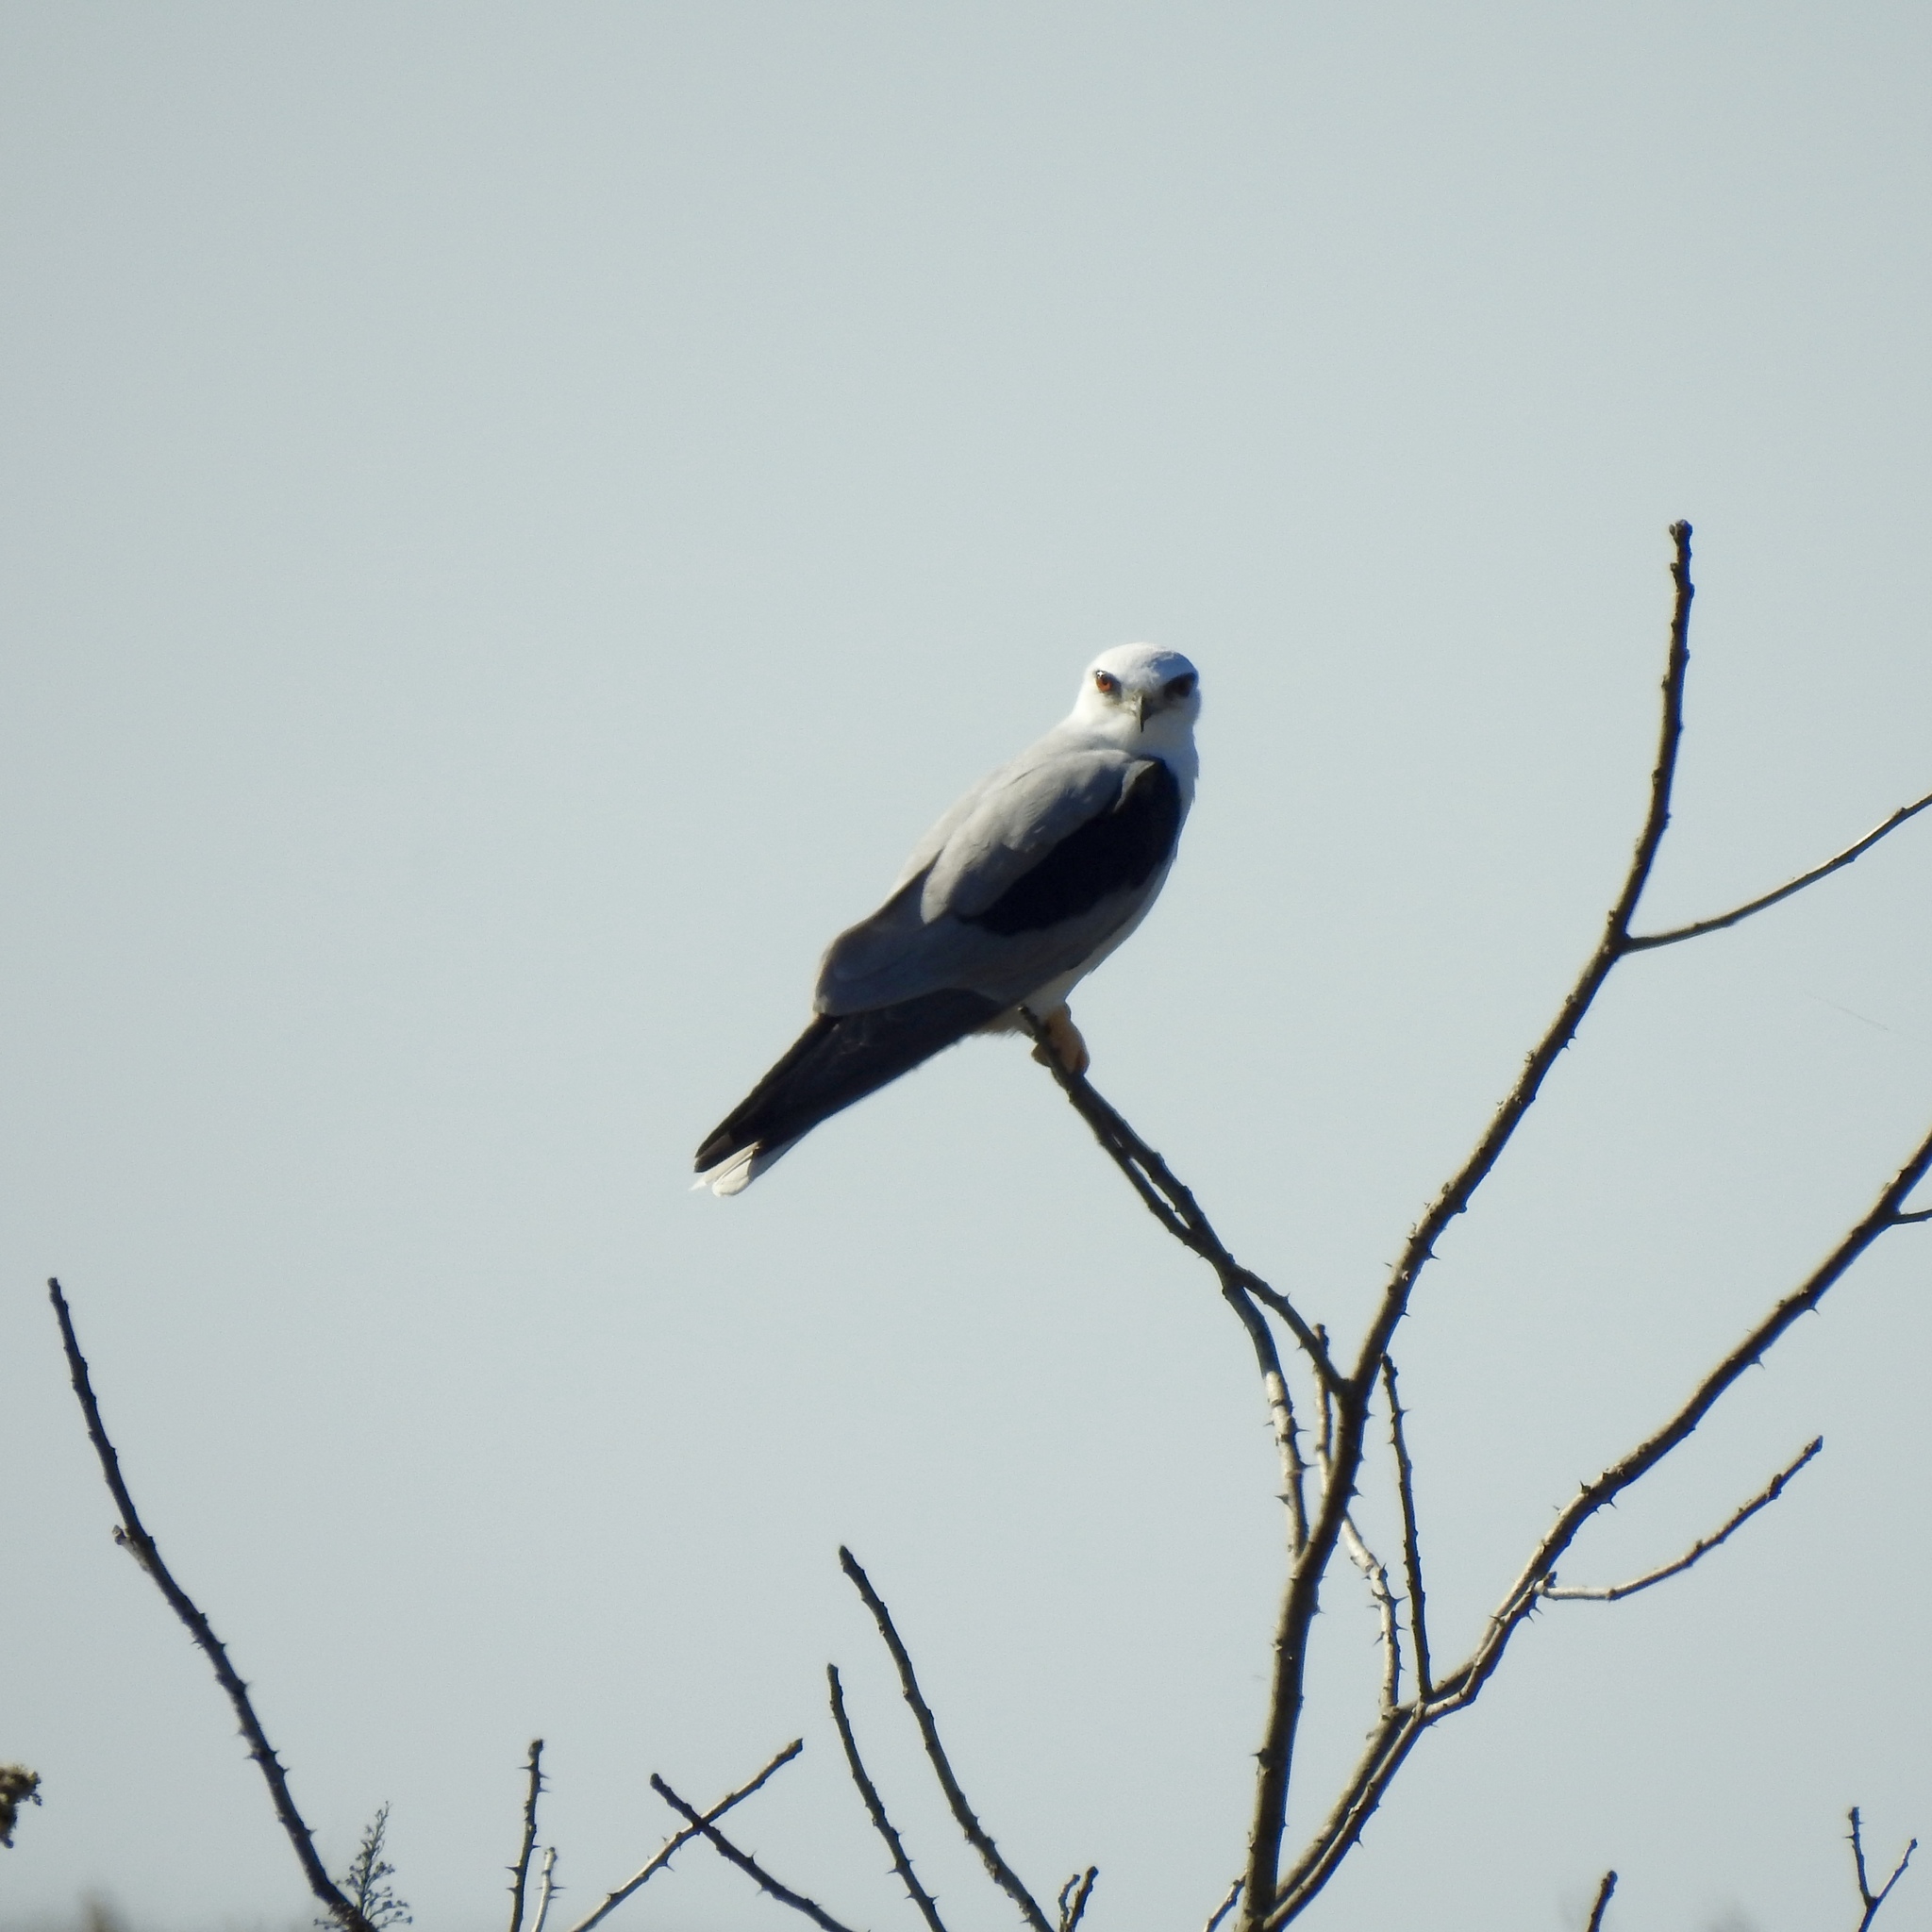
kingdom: Animalia
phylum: Chordata
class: Aves
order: Accipitriformes
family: Accipitridae
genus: Elanus
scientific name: Elanus leucurus
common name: White-tailed kite
